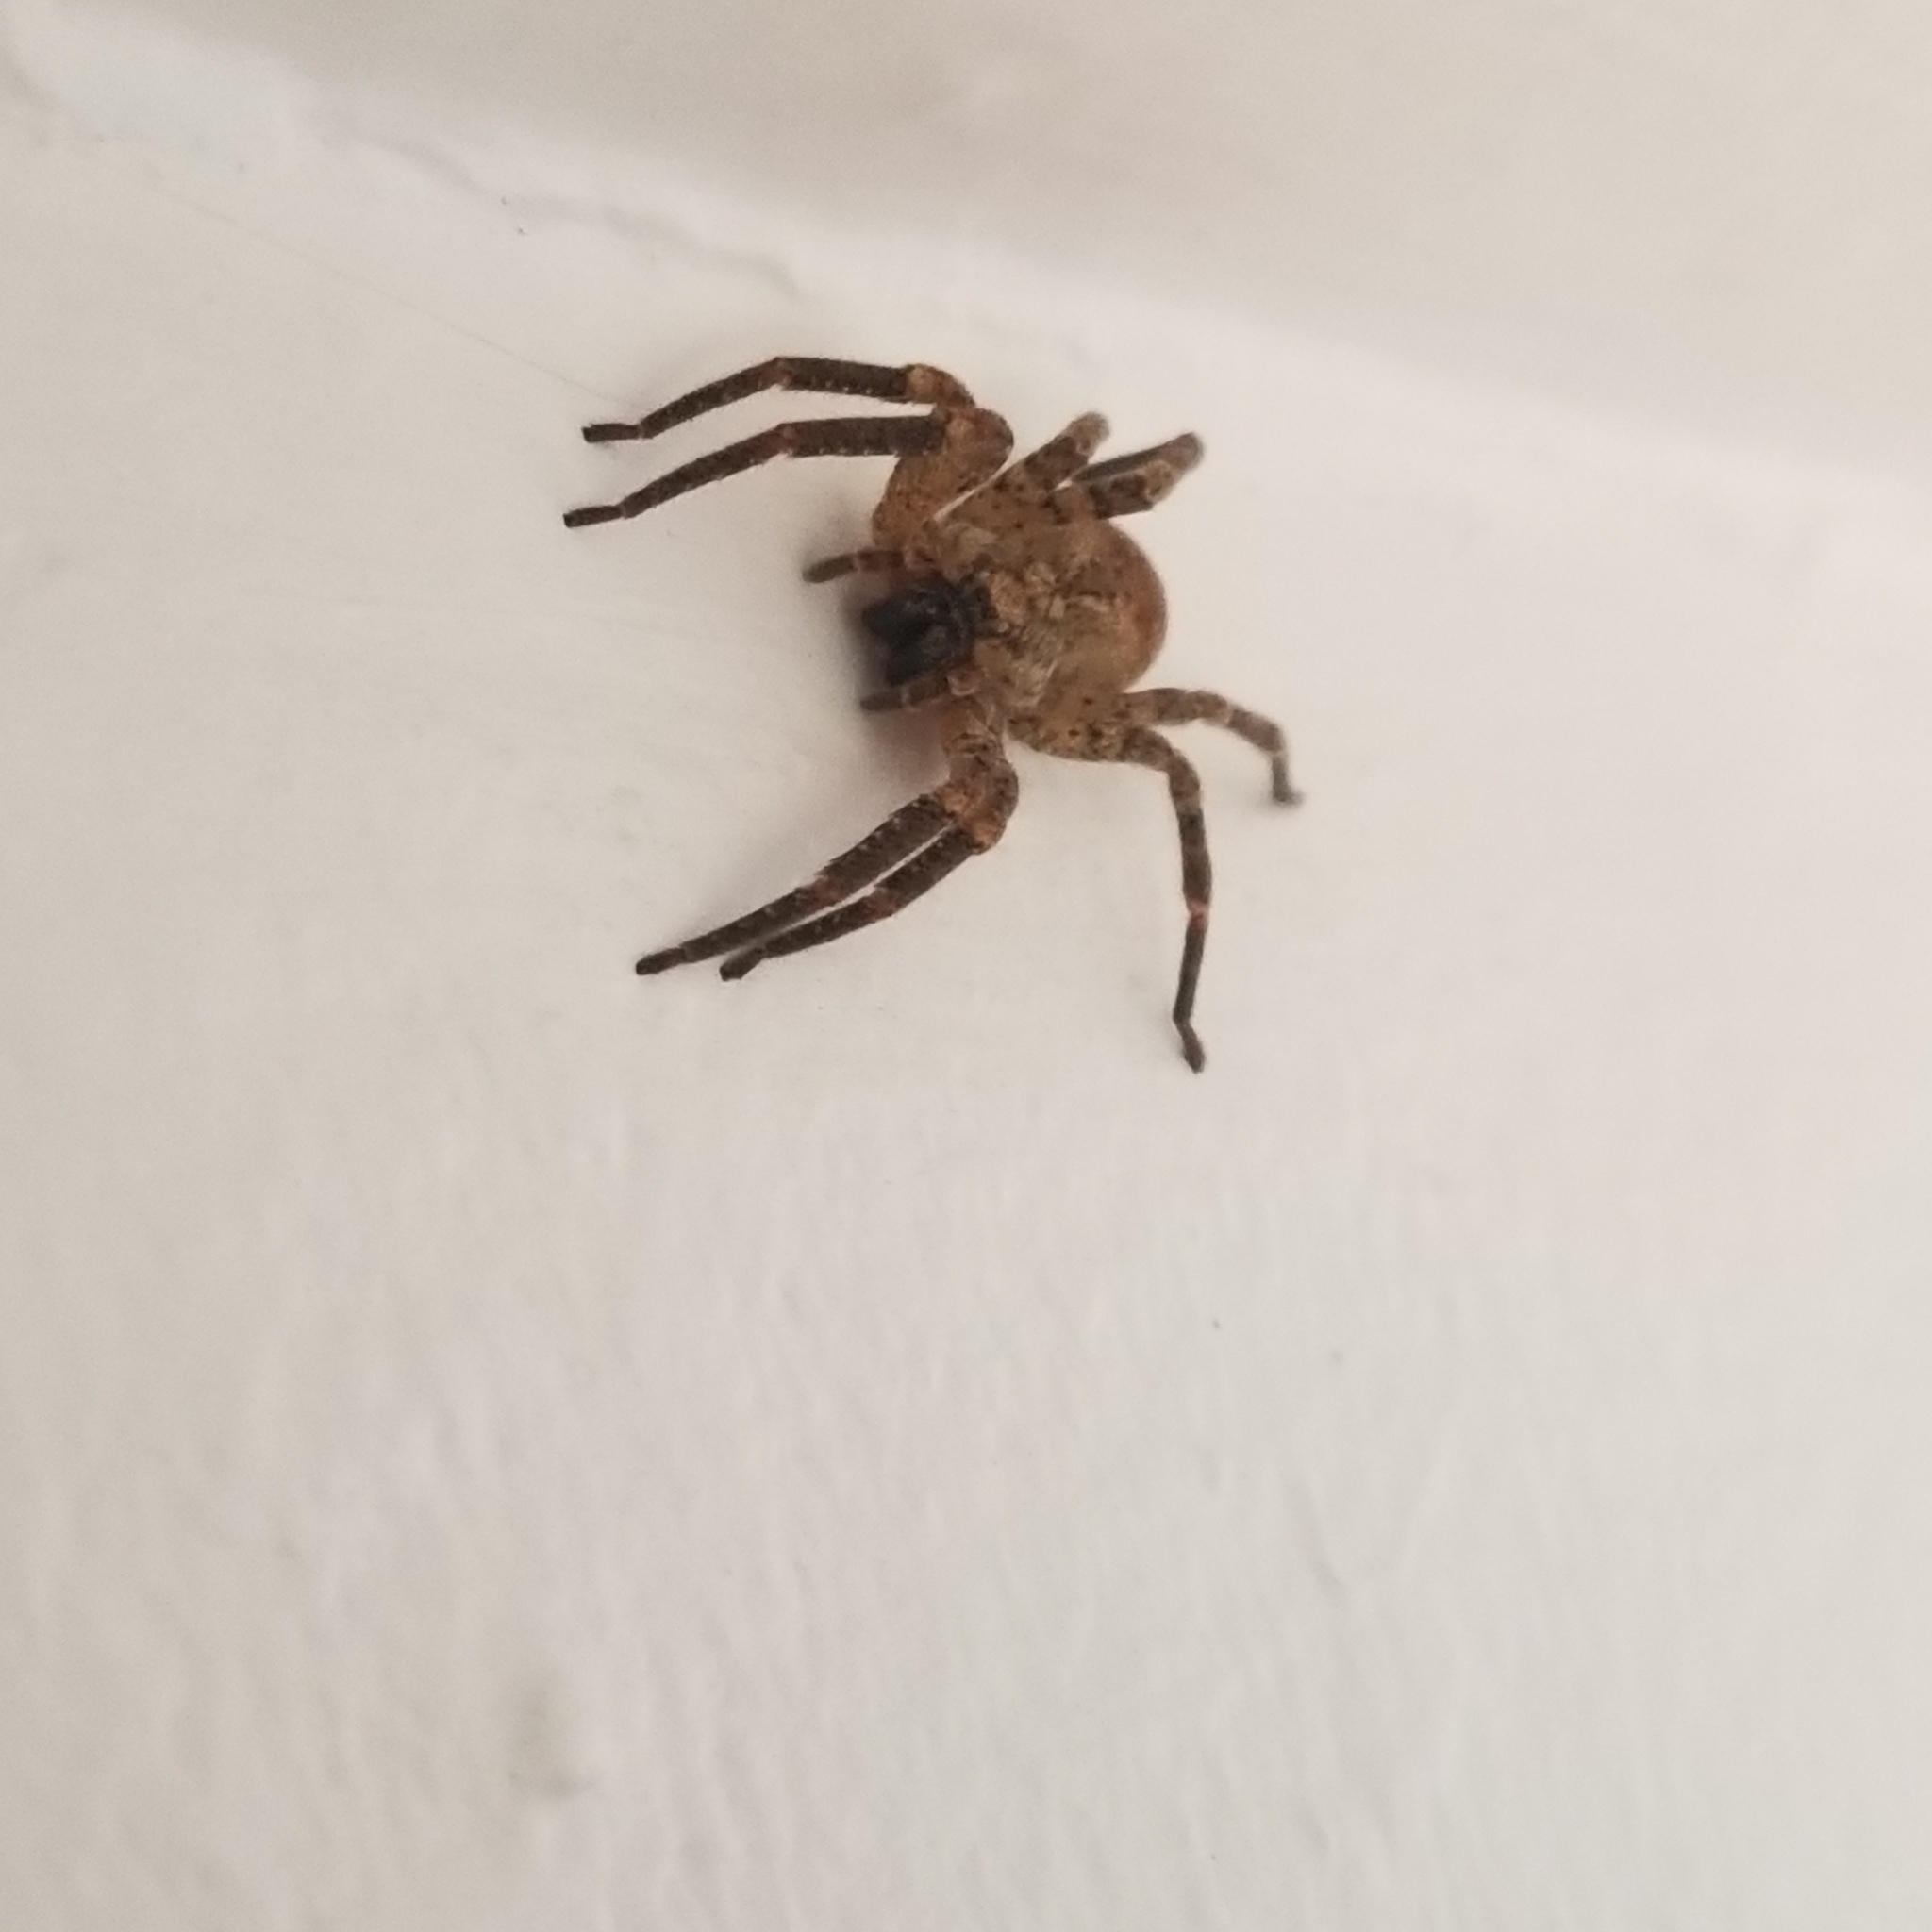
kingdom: Animalia
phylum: Arthropoda
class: Arachnida
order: Araneae
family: Zoropsidae
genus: Zoropsis
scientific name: Zoropsis spinimana
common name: Zoropsid spider
